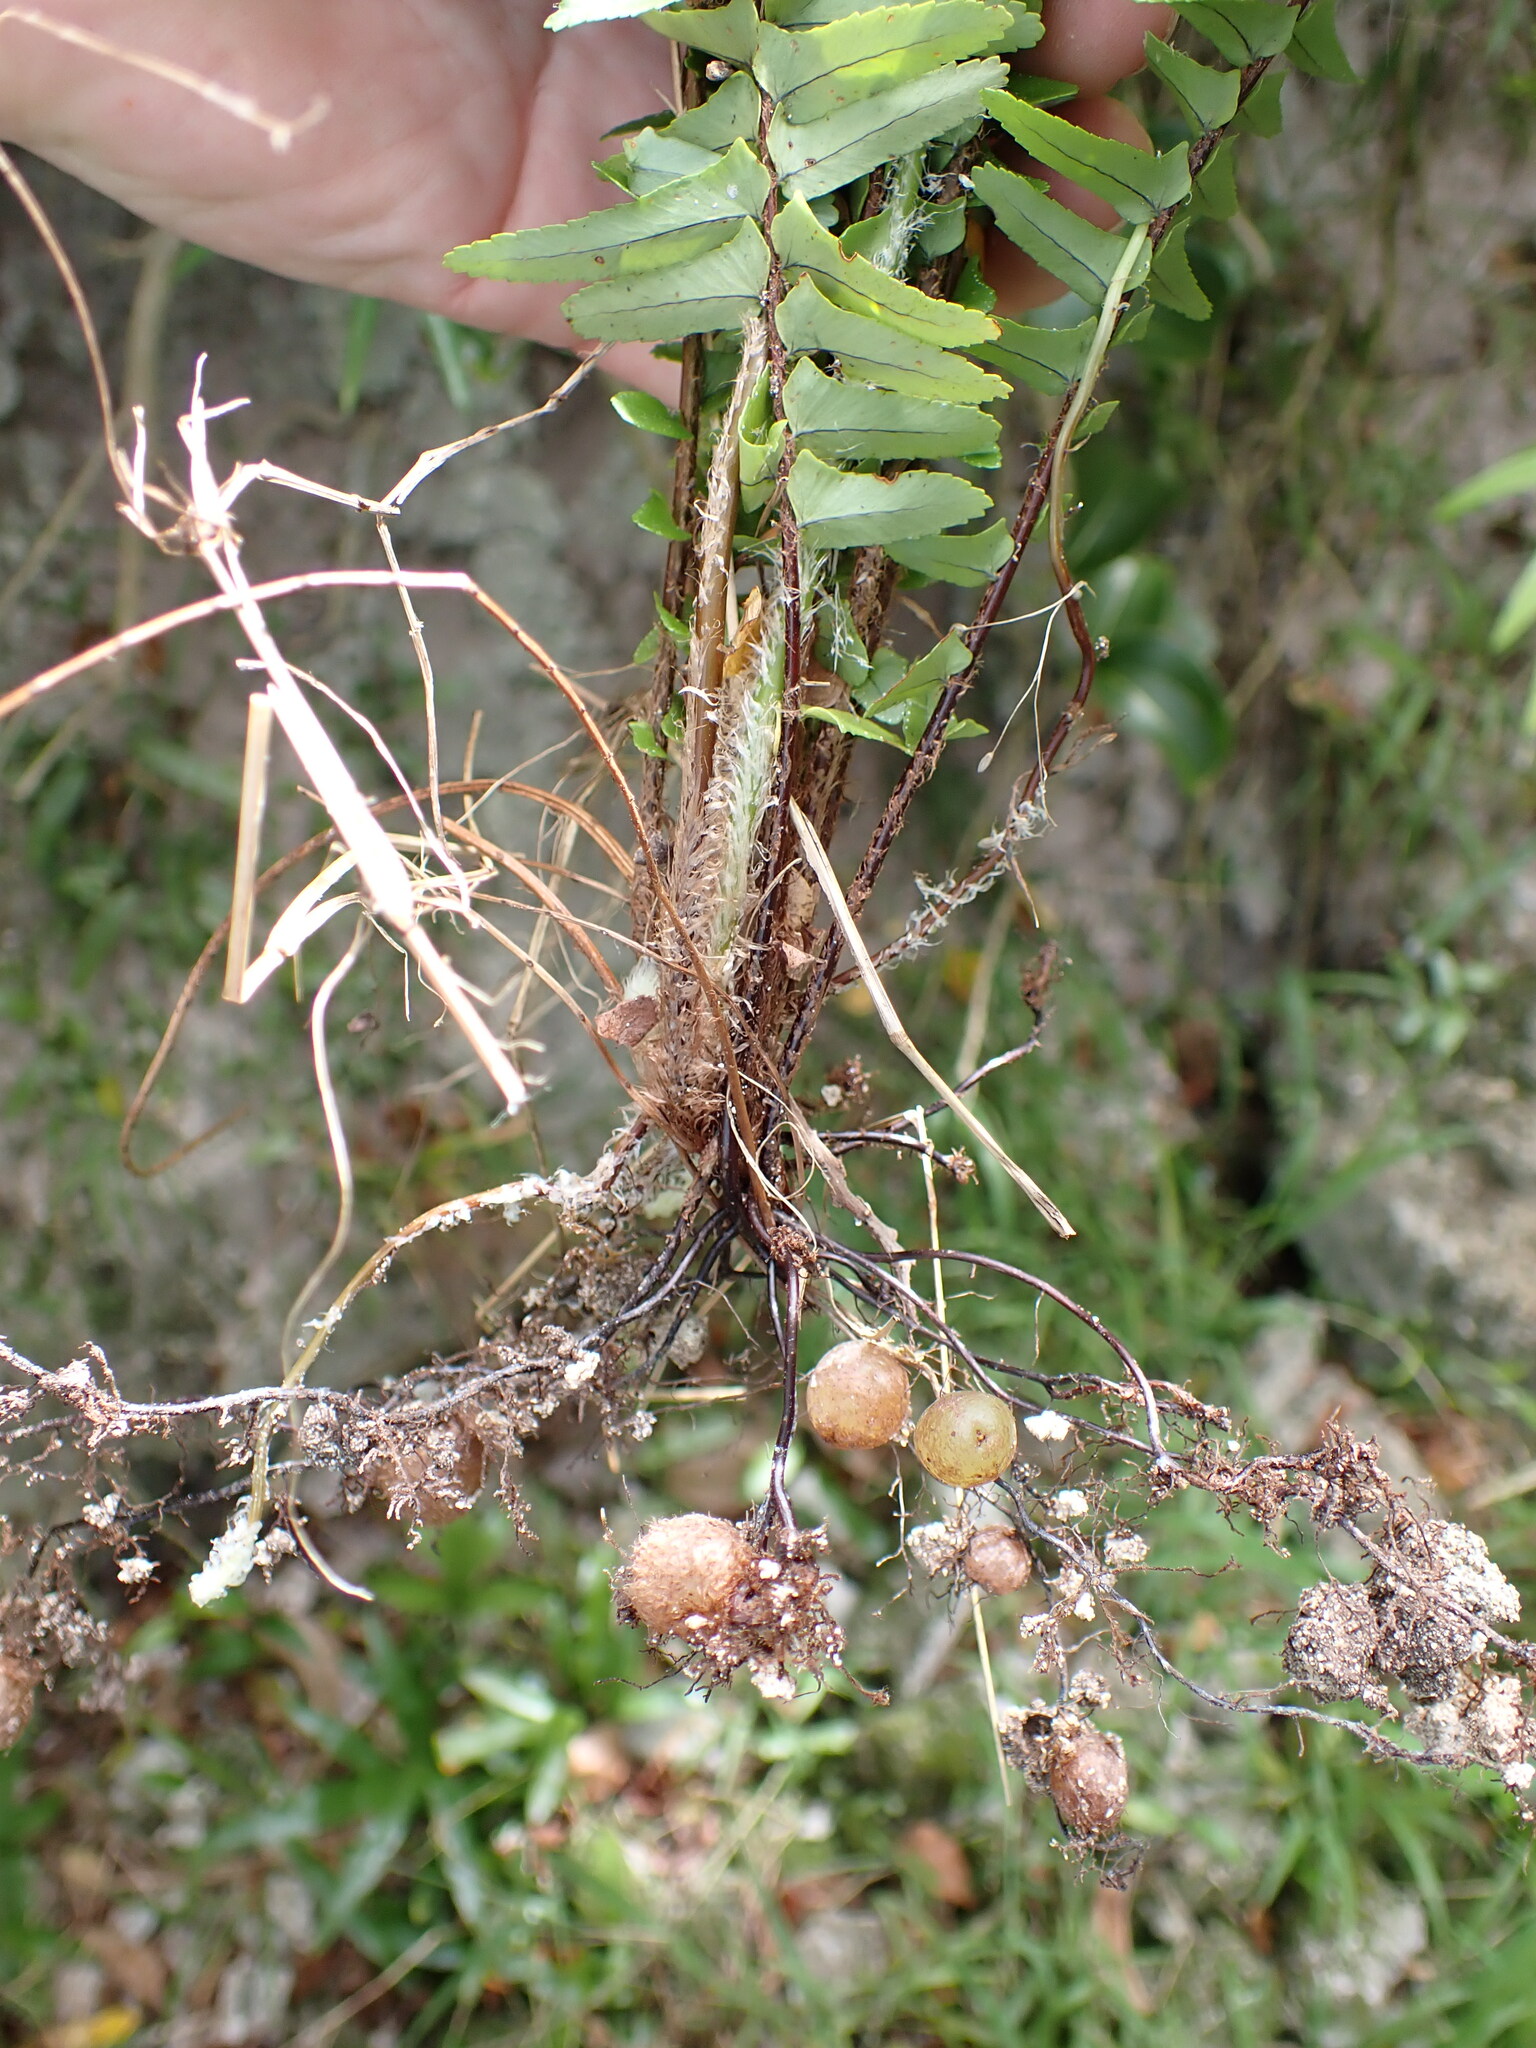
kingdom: Plantae
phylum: Tracheophyta
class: Polypodiopsida
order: Polypodiales
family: Nephrolepidaceae
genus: Nephrolepis
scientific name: Nephrolepis cordifolia
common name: Narrow swordfern
